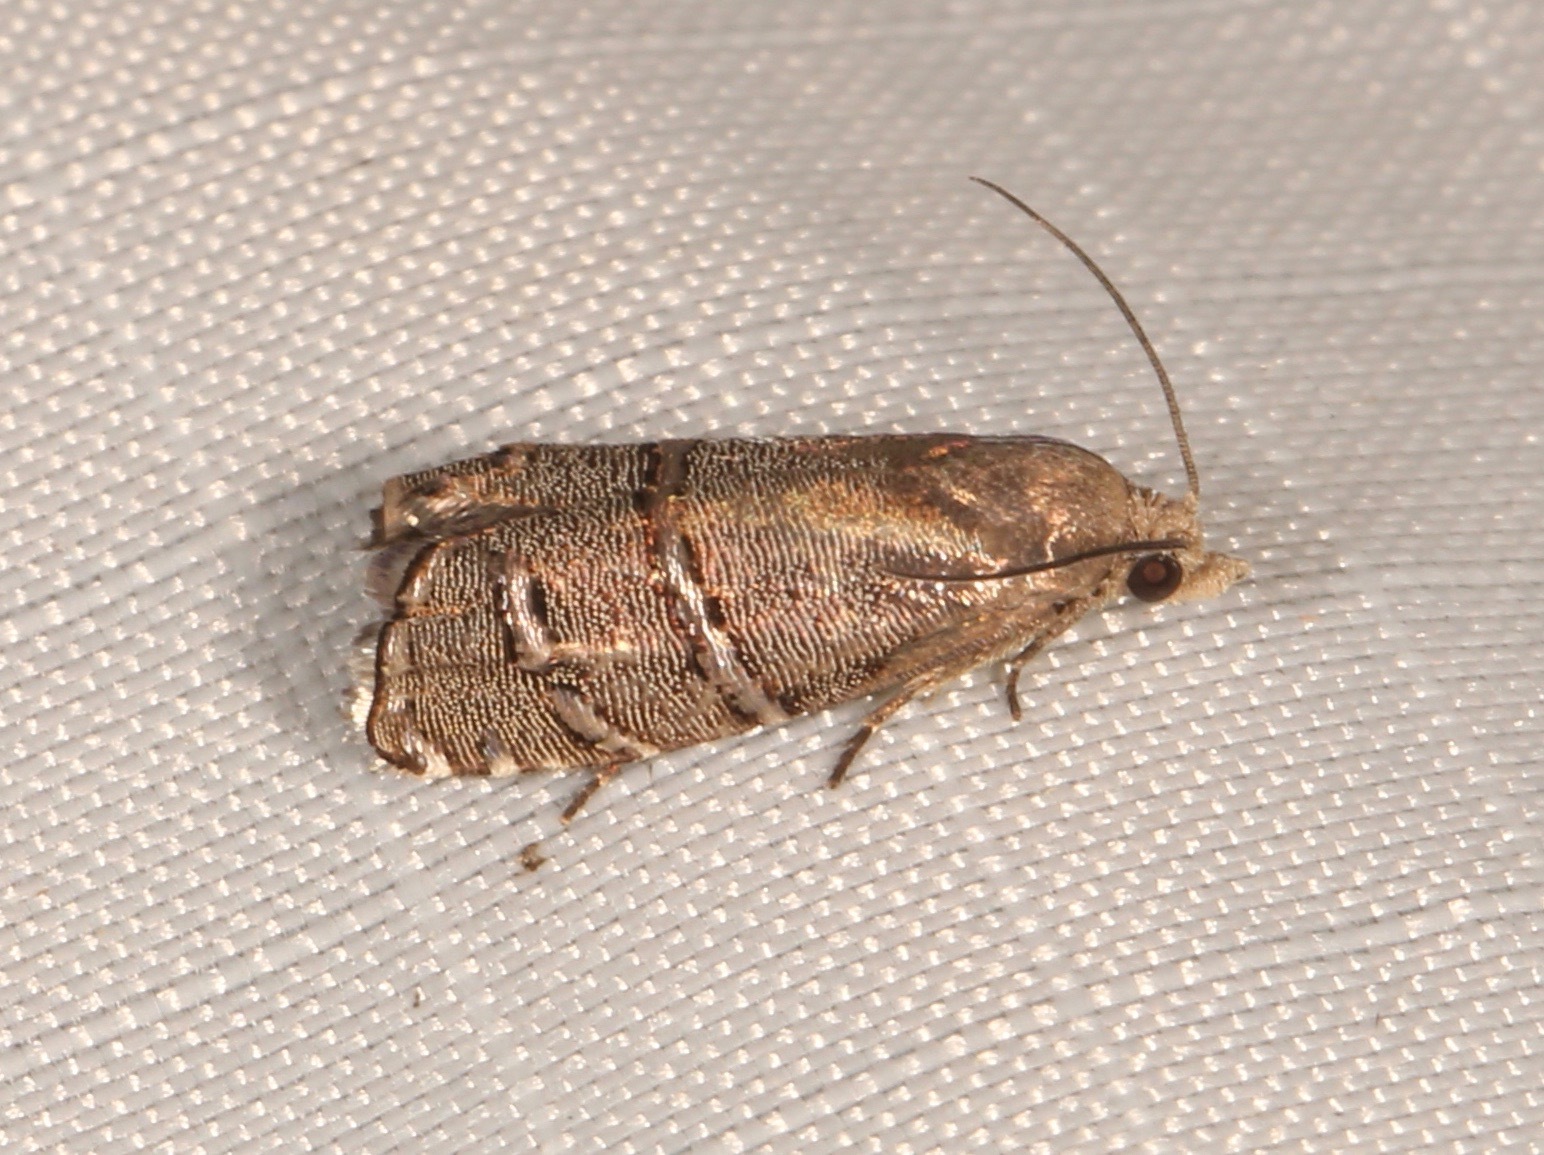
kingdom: Animalia
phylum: Arthropoda
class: Insecta
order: Lepidoptera
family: Tortricidae
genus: Cydia
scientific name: Cydia ingens
